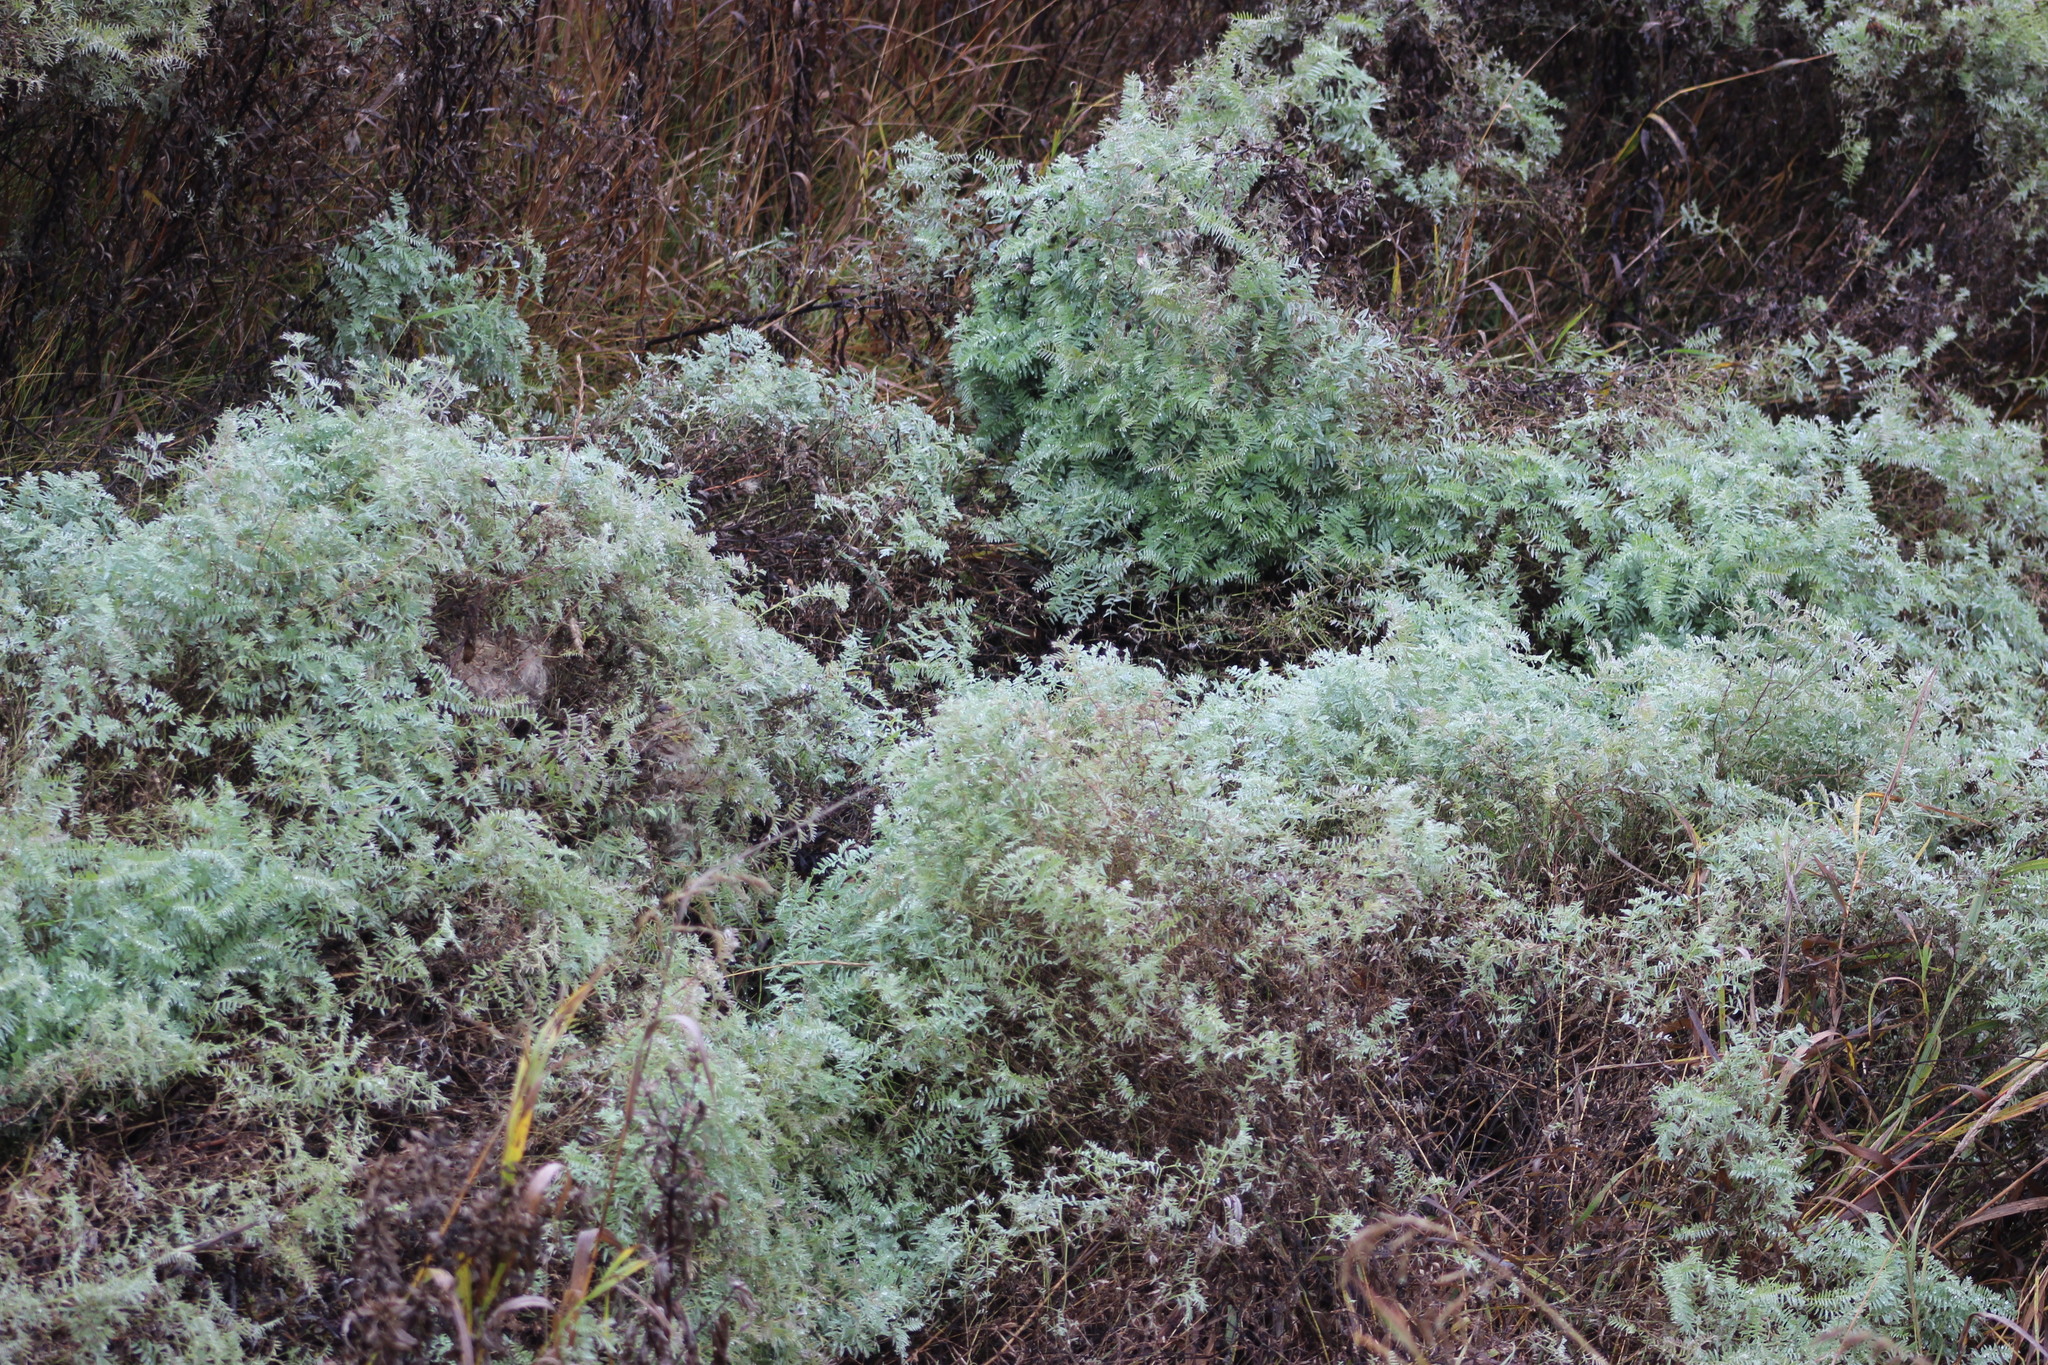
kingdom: Plantae
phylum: Tracheophyta
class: Magnoliopsida
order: Fabales
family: Fabaceae
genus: Vicia
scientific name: Vicia cracca
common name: Bird vetch
